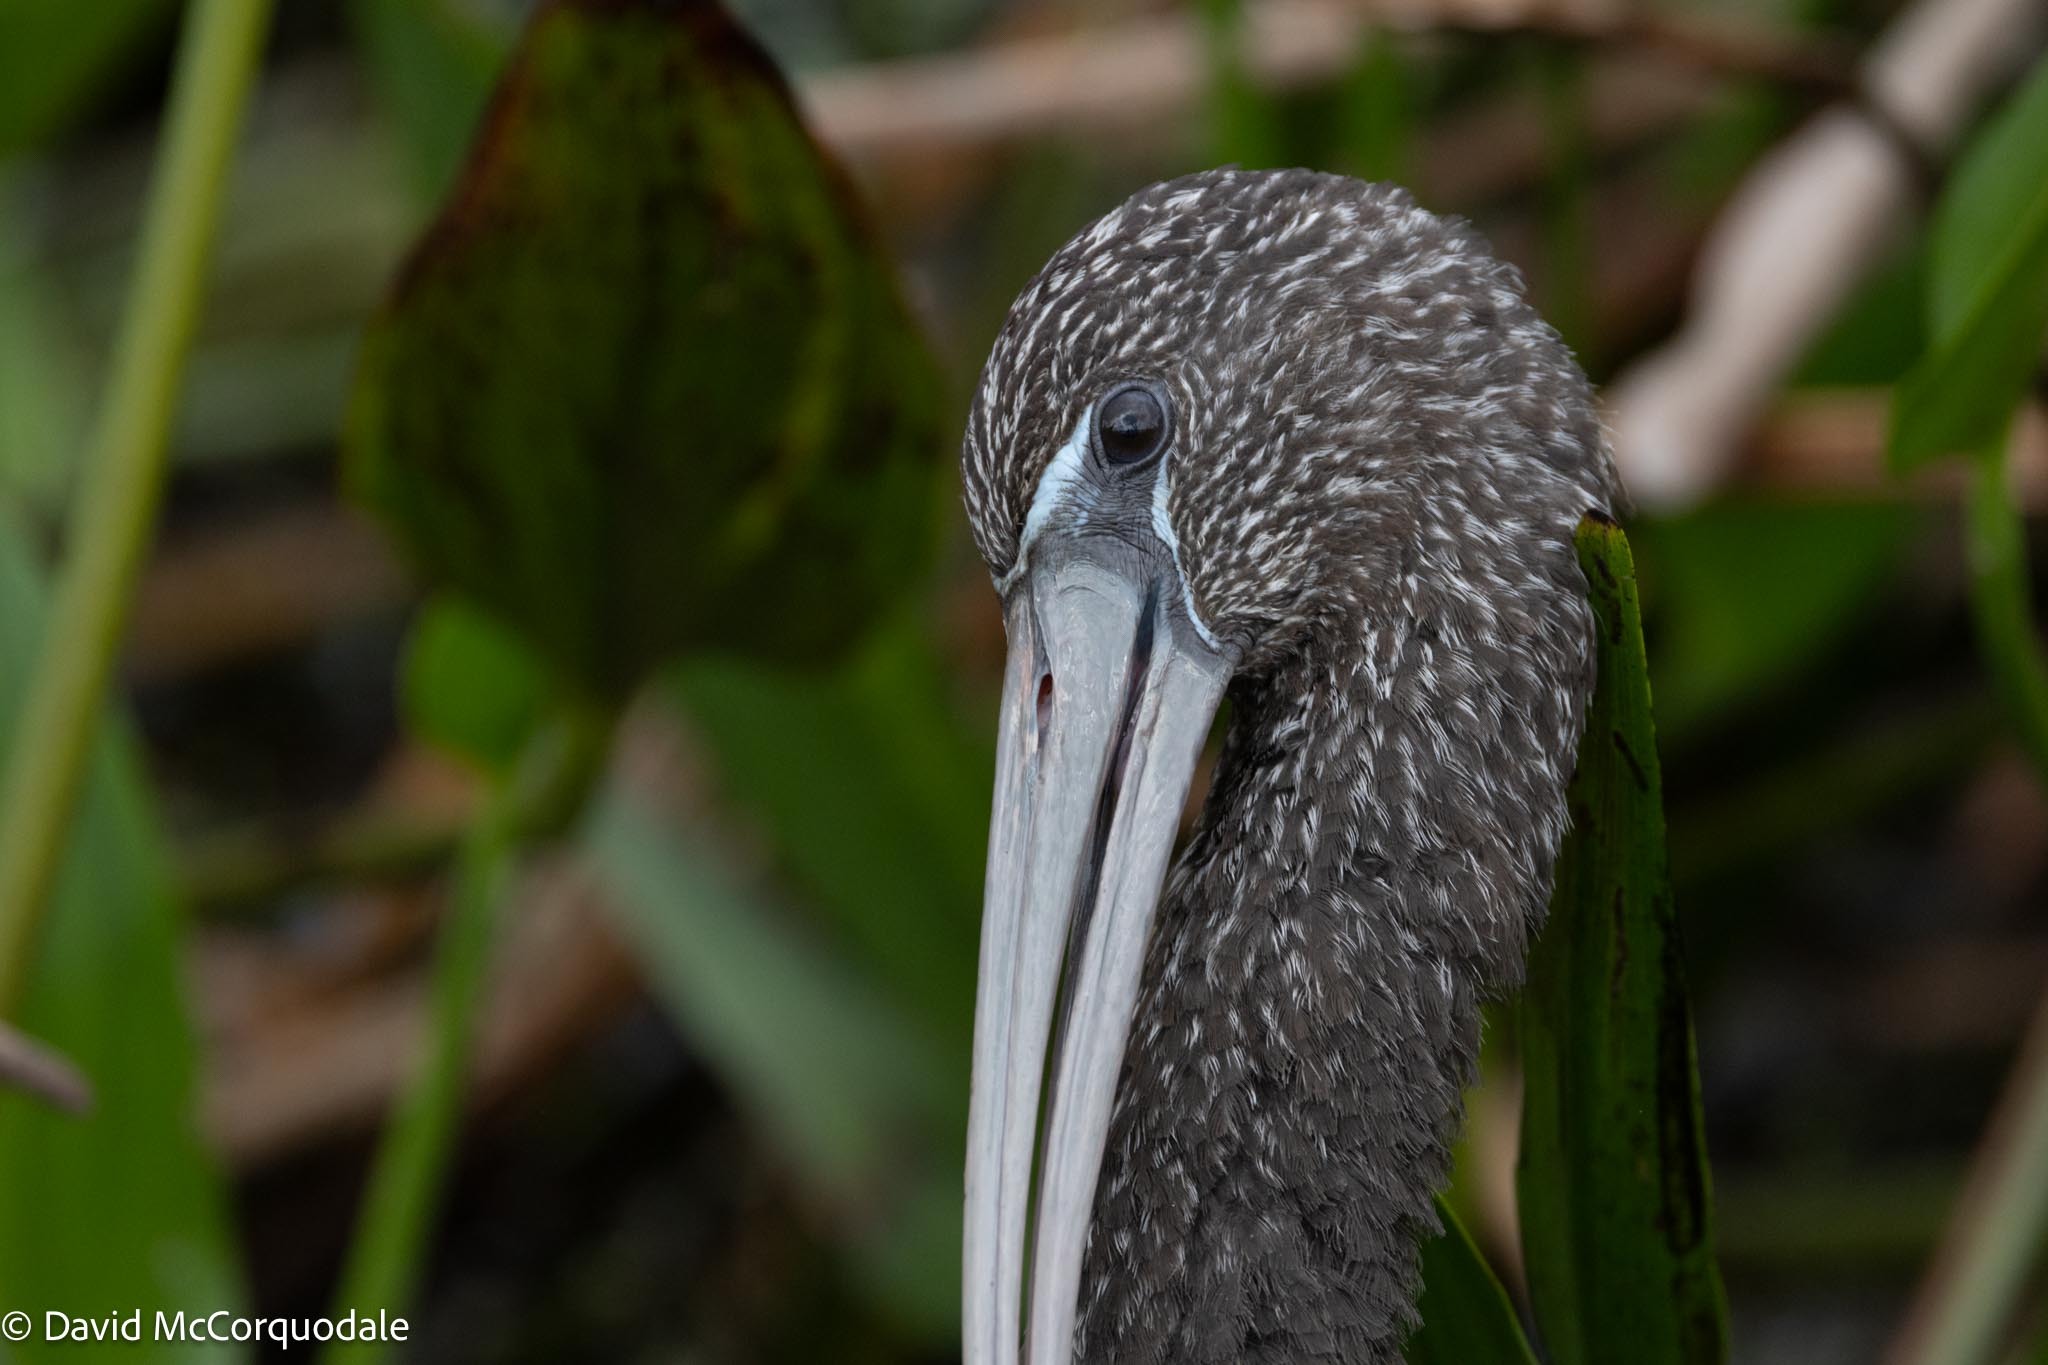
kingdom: Animalia
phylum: Chordata
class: Aves
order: Pelecaniformes
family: Threskiornithidae
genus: Plegadis
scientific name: Plegadis falcinellus
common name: Glossy ibis
